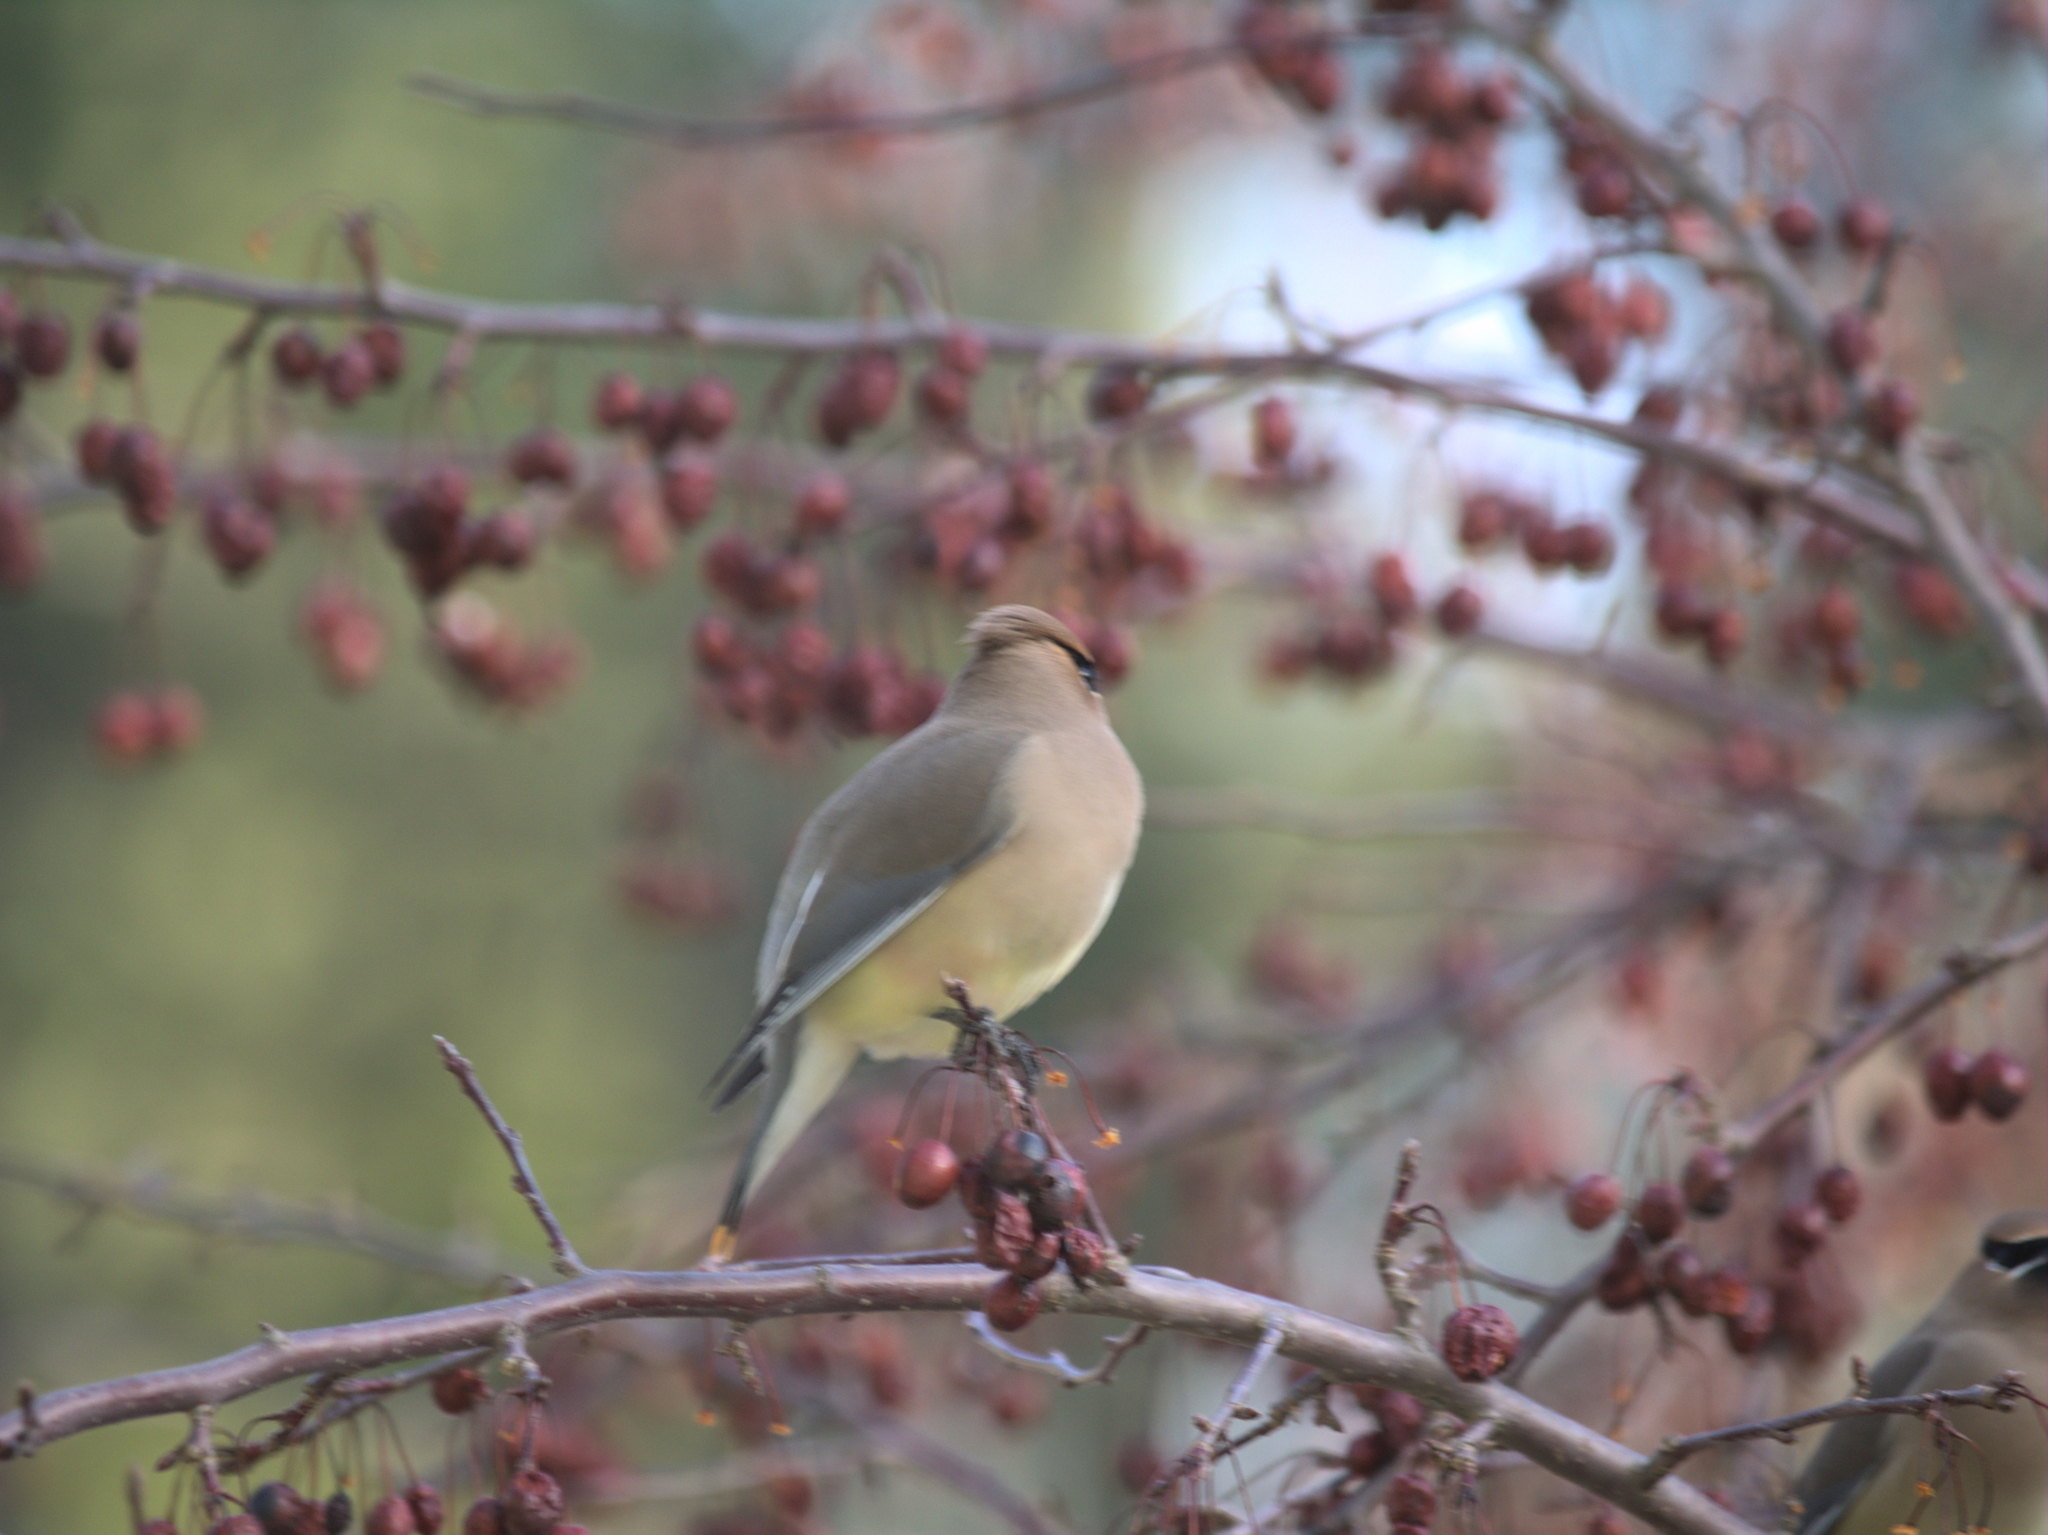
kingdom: Animalia
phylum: Chordata
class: Aves
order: Passeriformes
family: Bombycillidae
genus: Bombycilla
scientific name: Bombycilla cedrorum
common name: Cedar waxwing
